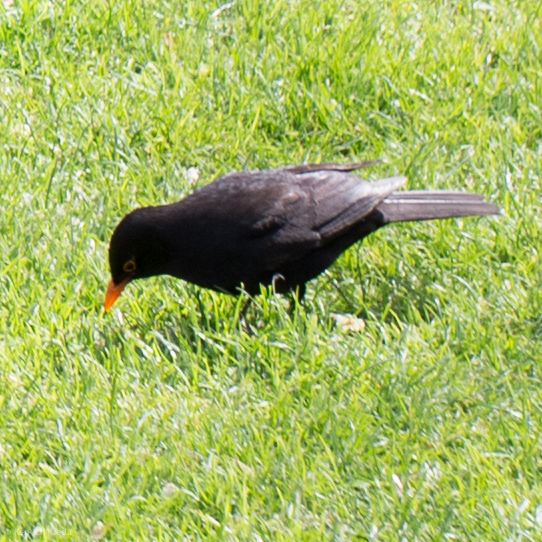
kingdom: Animalia
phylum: Chordata
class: Aves
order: Passeriformes
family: Turdidae
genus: Turdus
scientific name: Turdus merula
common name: Common blackbird
